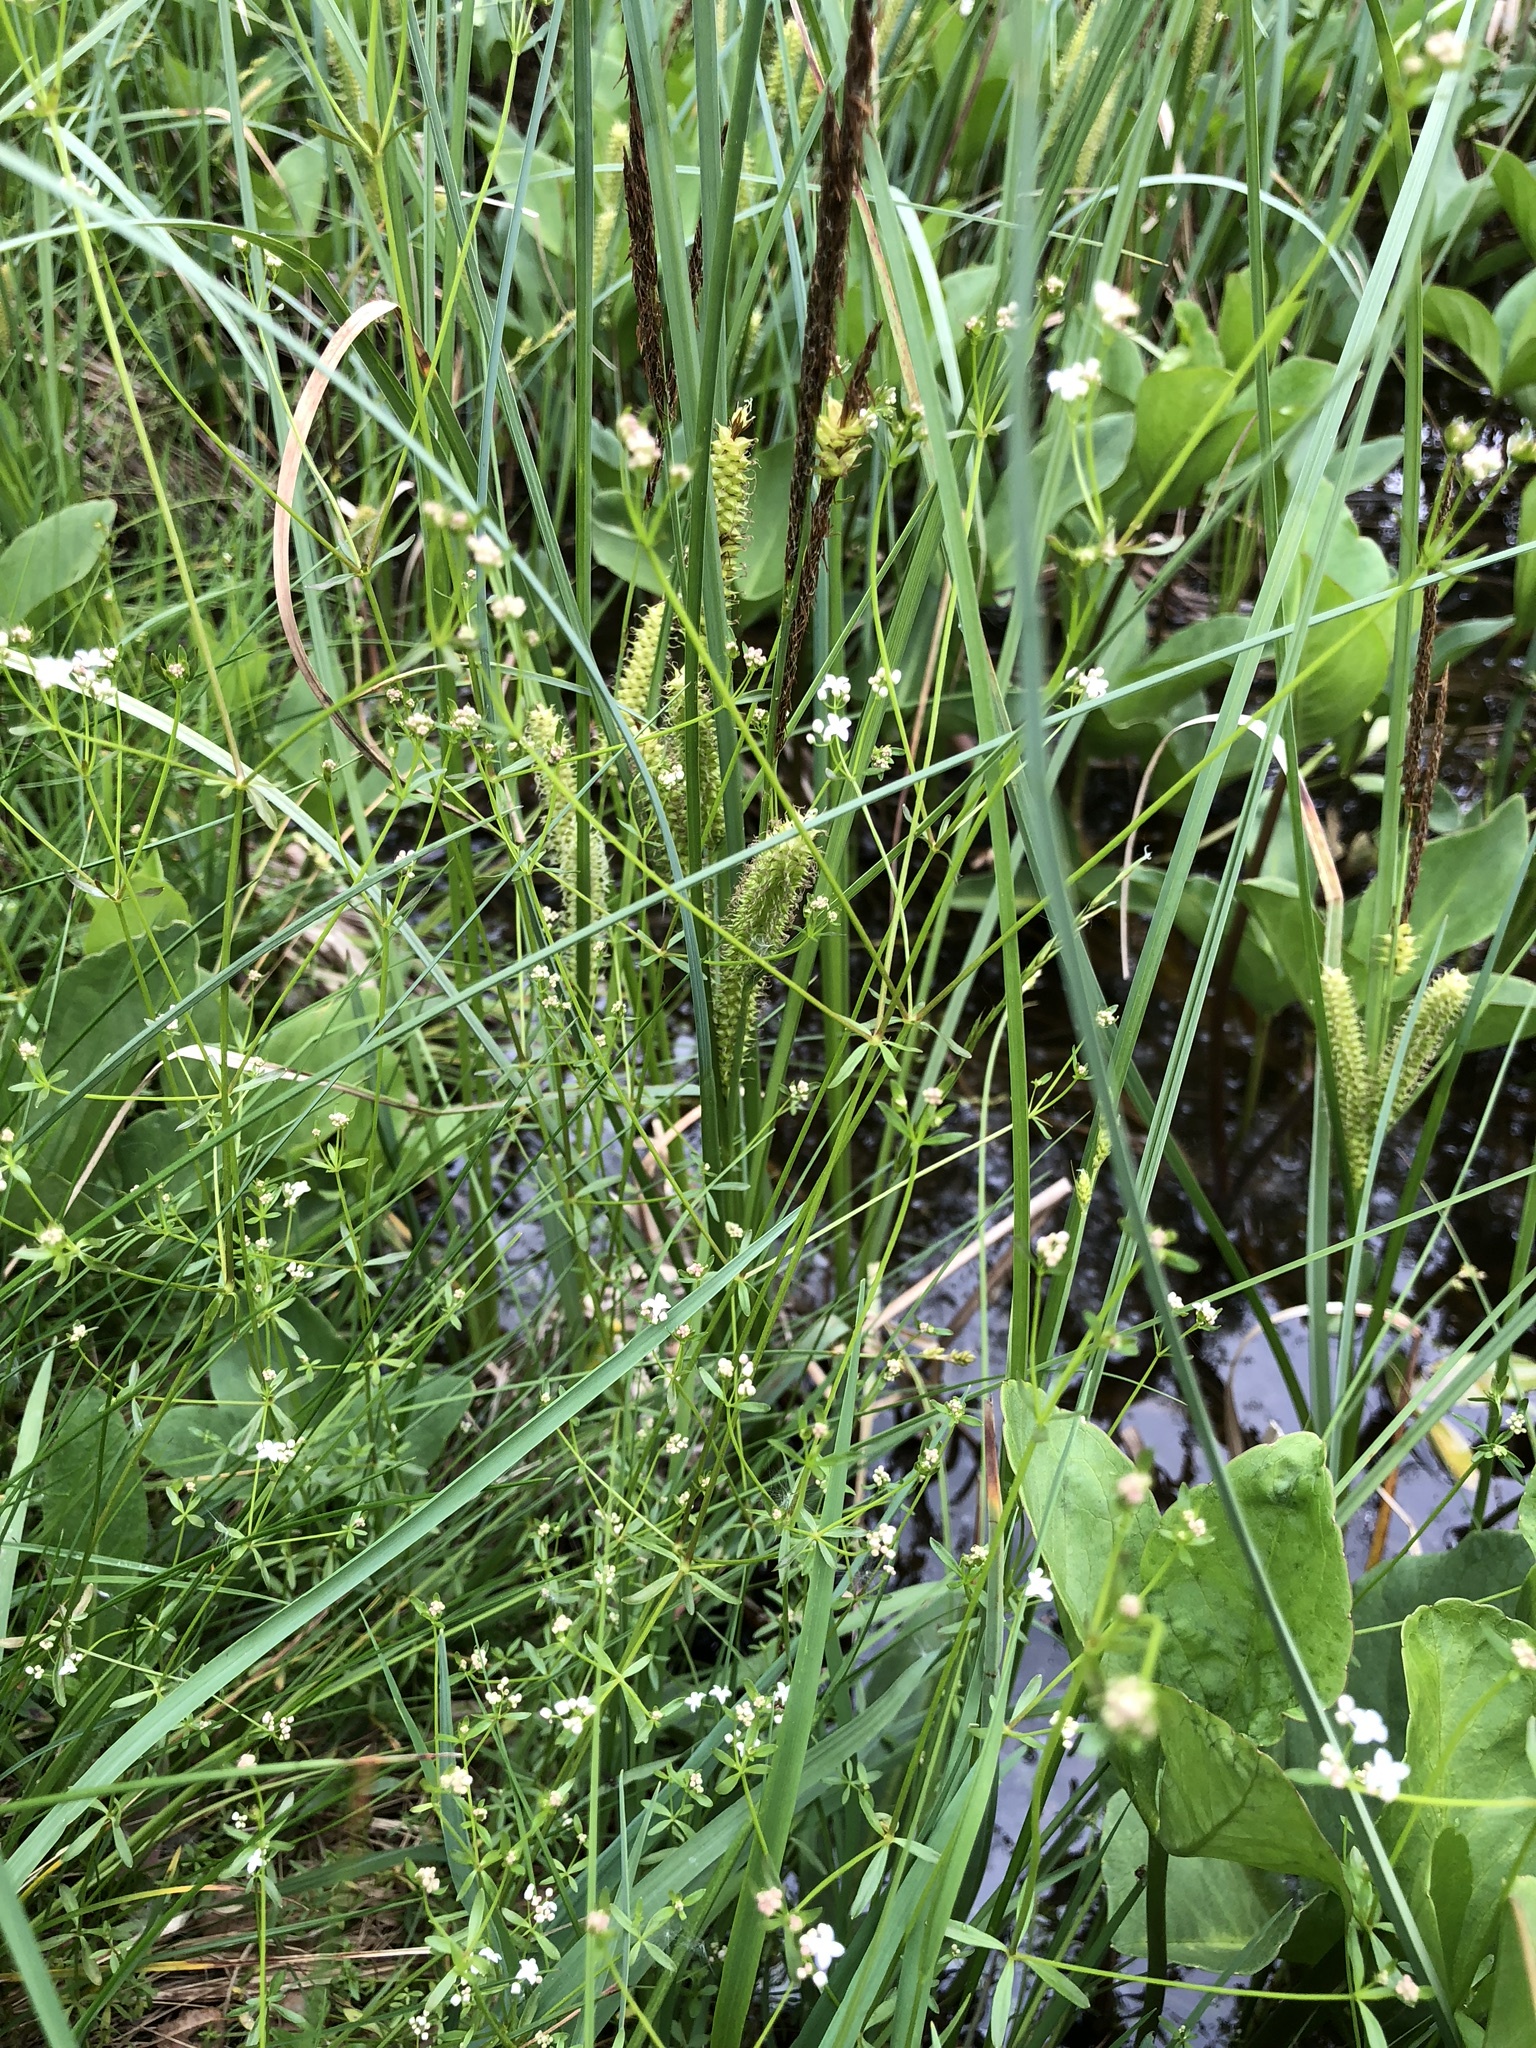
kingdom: Plantae
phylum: Tracheophyta
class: Magnoliopsida
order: Gentianales
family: Rubiaceae
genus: Galium
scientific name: Galium palustre
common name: Common marsh-bedstraw
